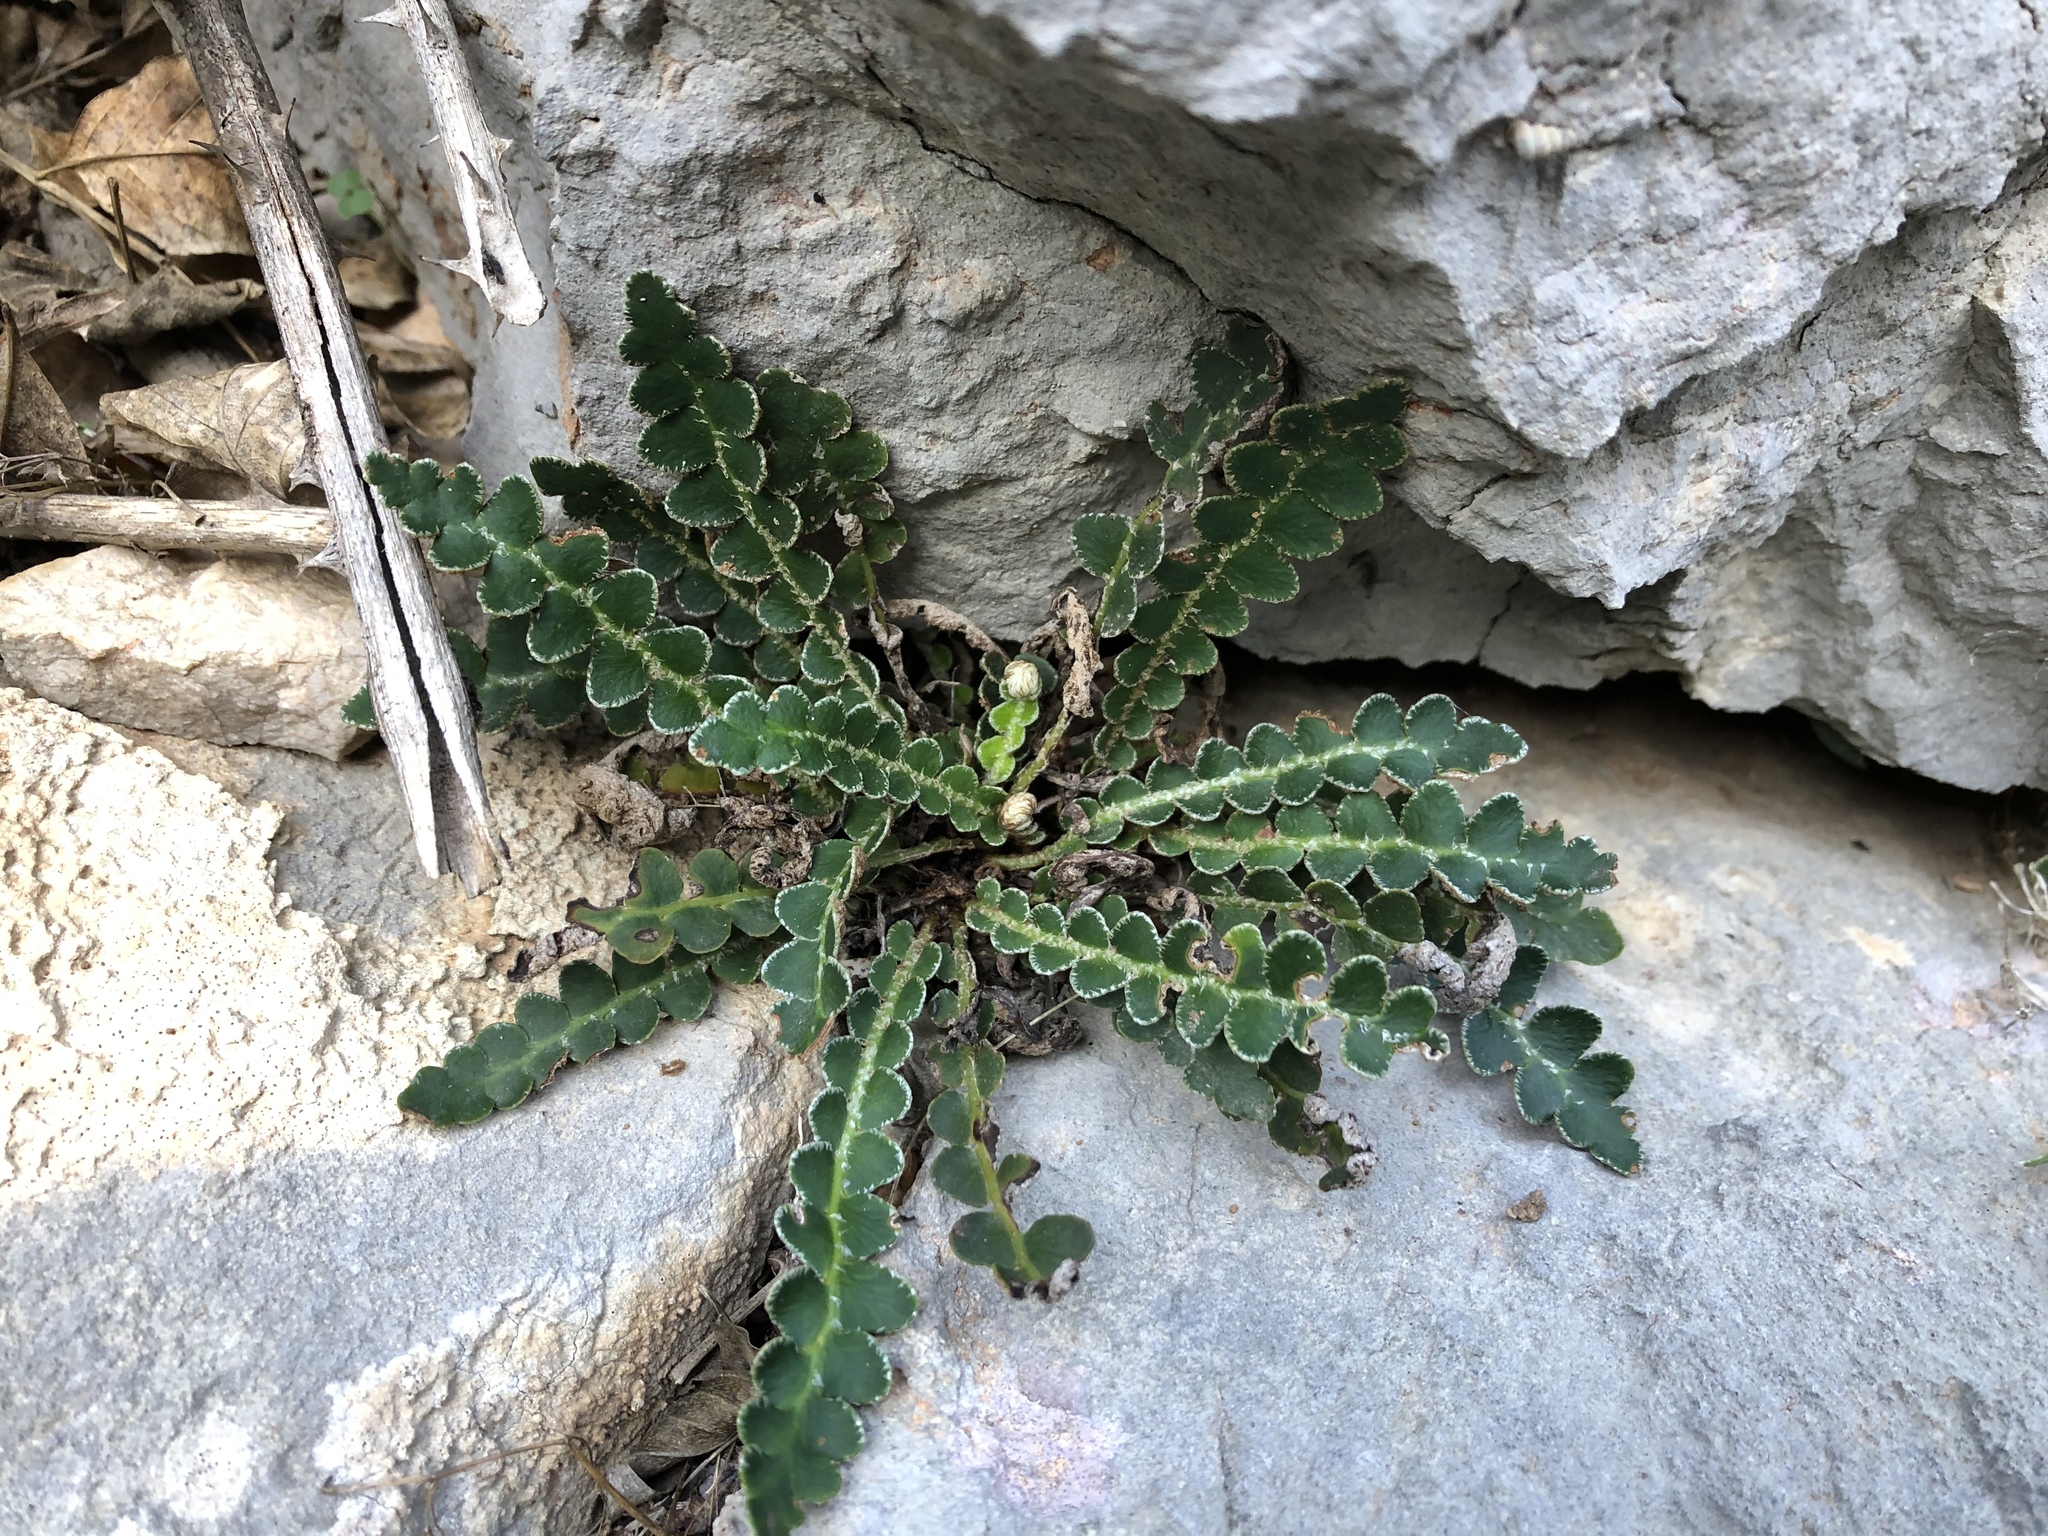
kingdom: Plantae
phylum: Tracheophyta
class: Polypodiopsida
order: Polypodiales
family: Aspleniaceae
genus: Asplenium
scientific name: Asplenium ceterach
